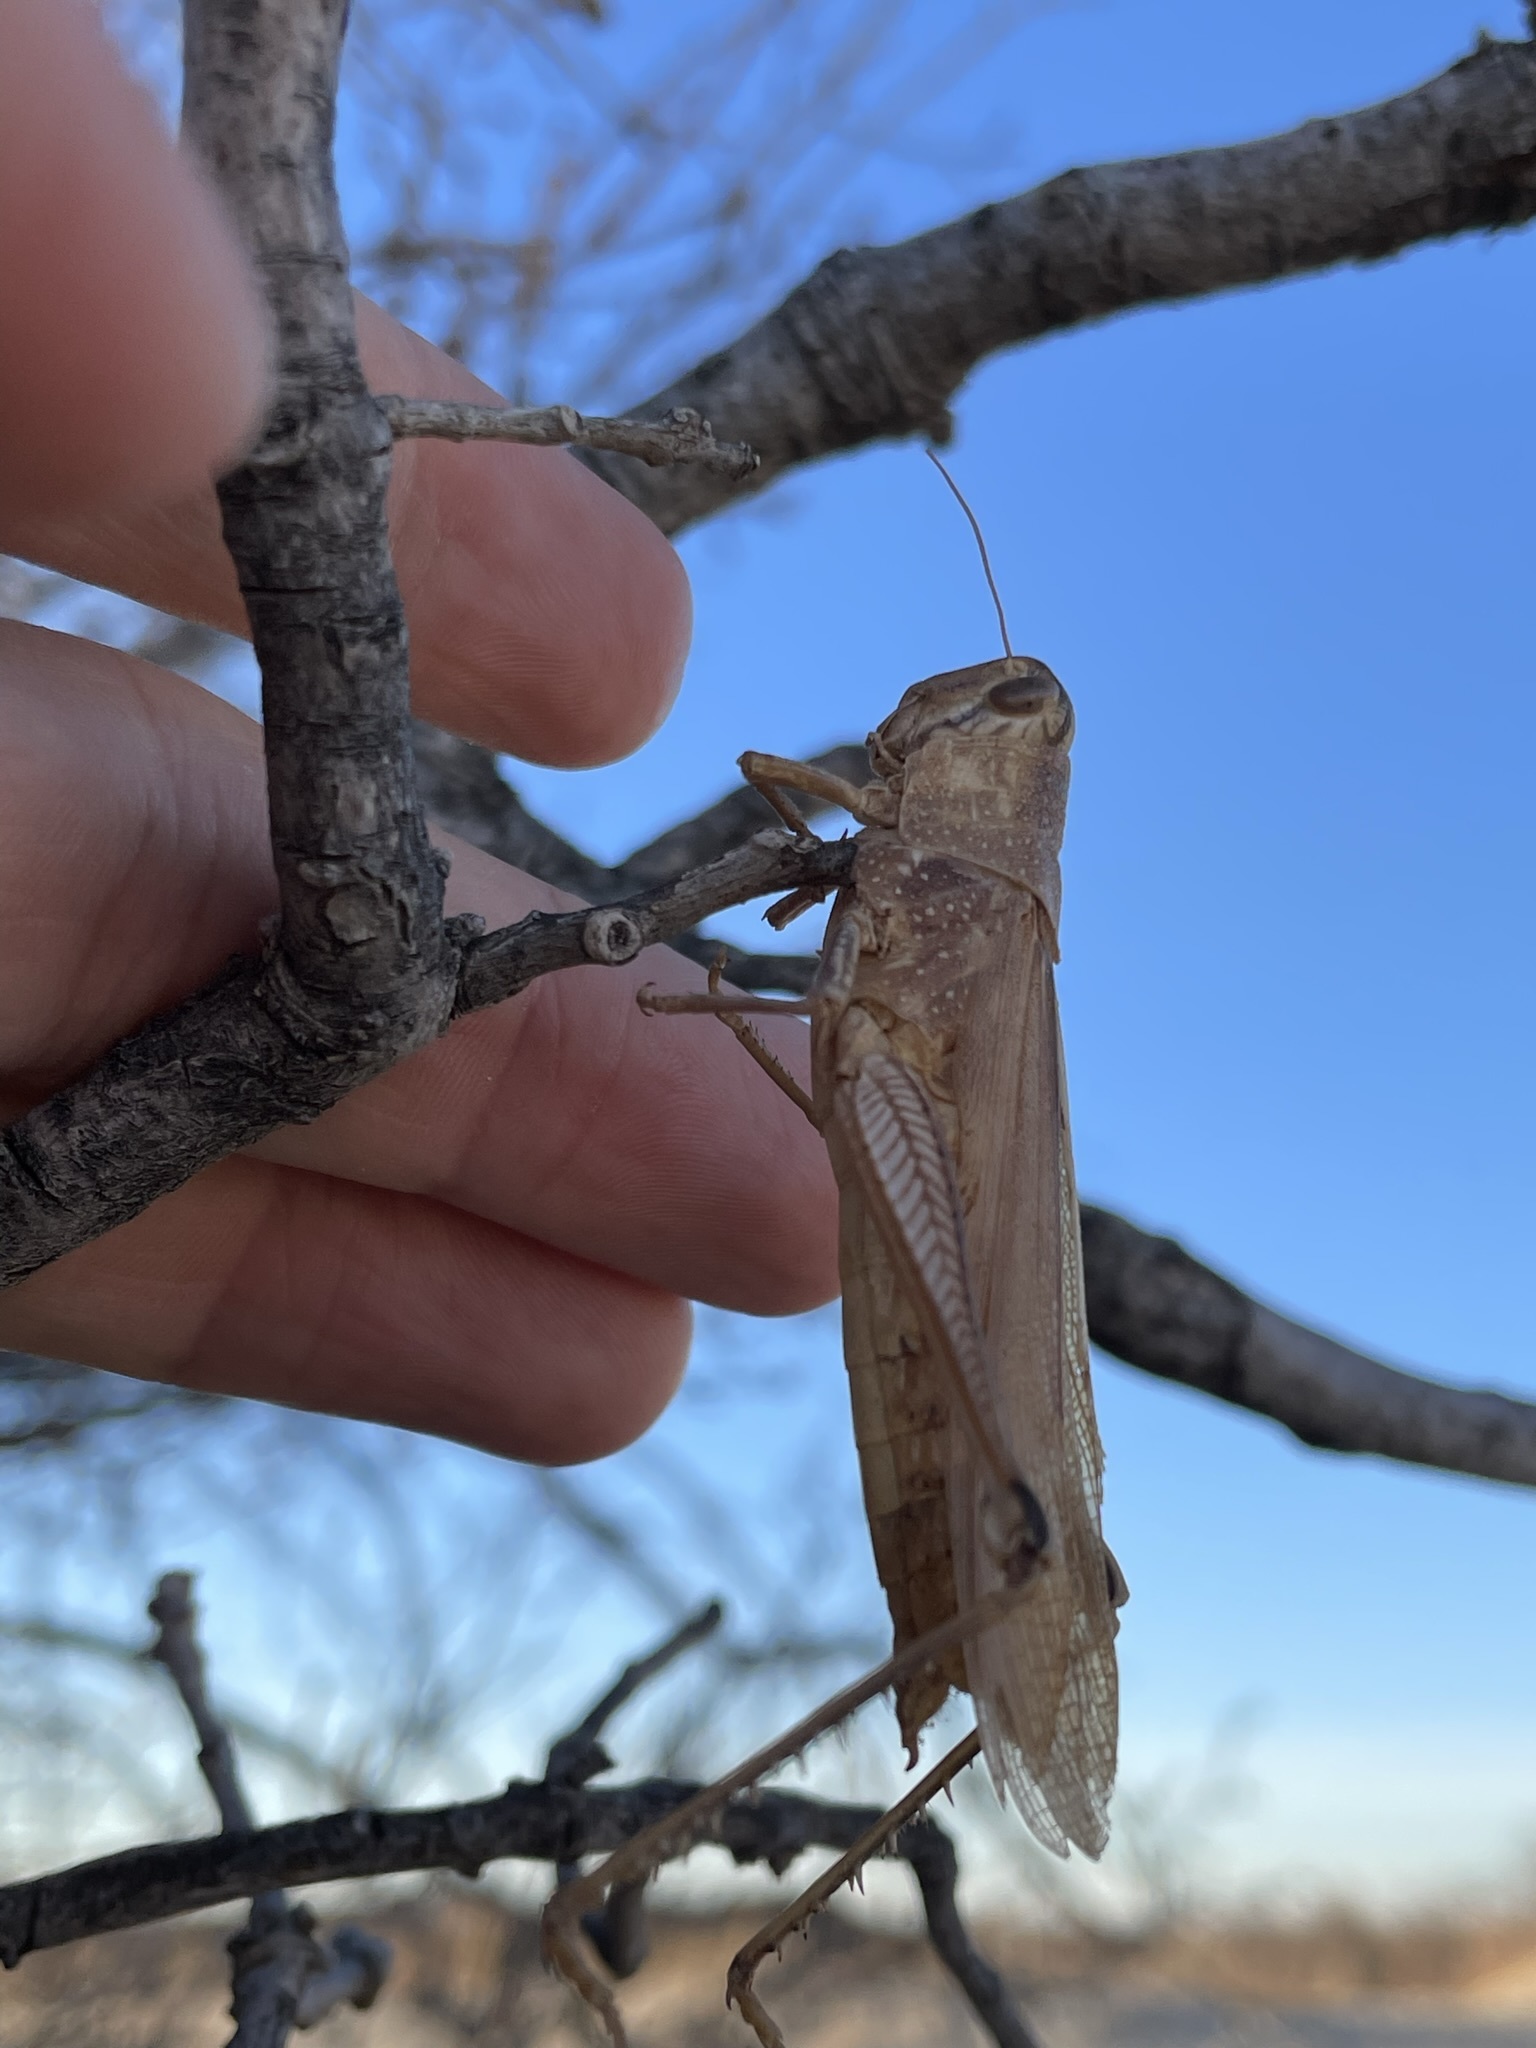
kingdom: Animalia
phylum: Arthropoda
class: Insecta
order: Orthoptera
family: Acrididae
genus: Schistocerca
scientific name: Schistocerca lineata
